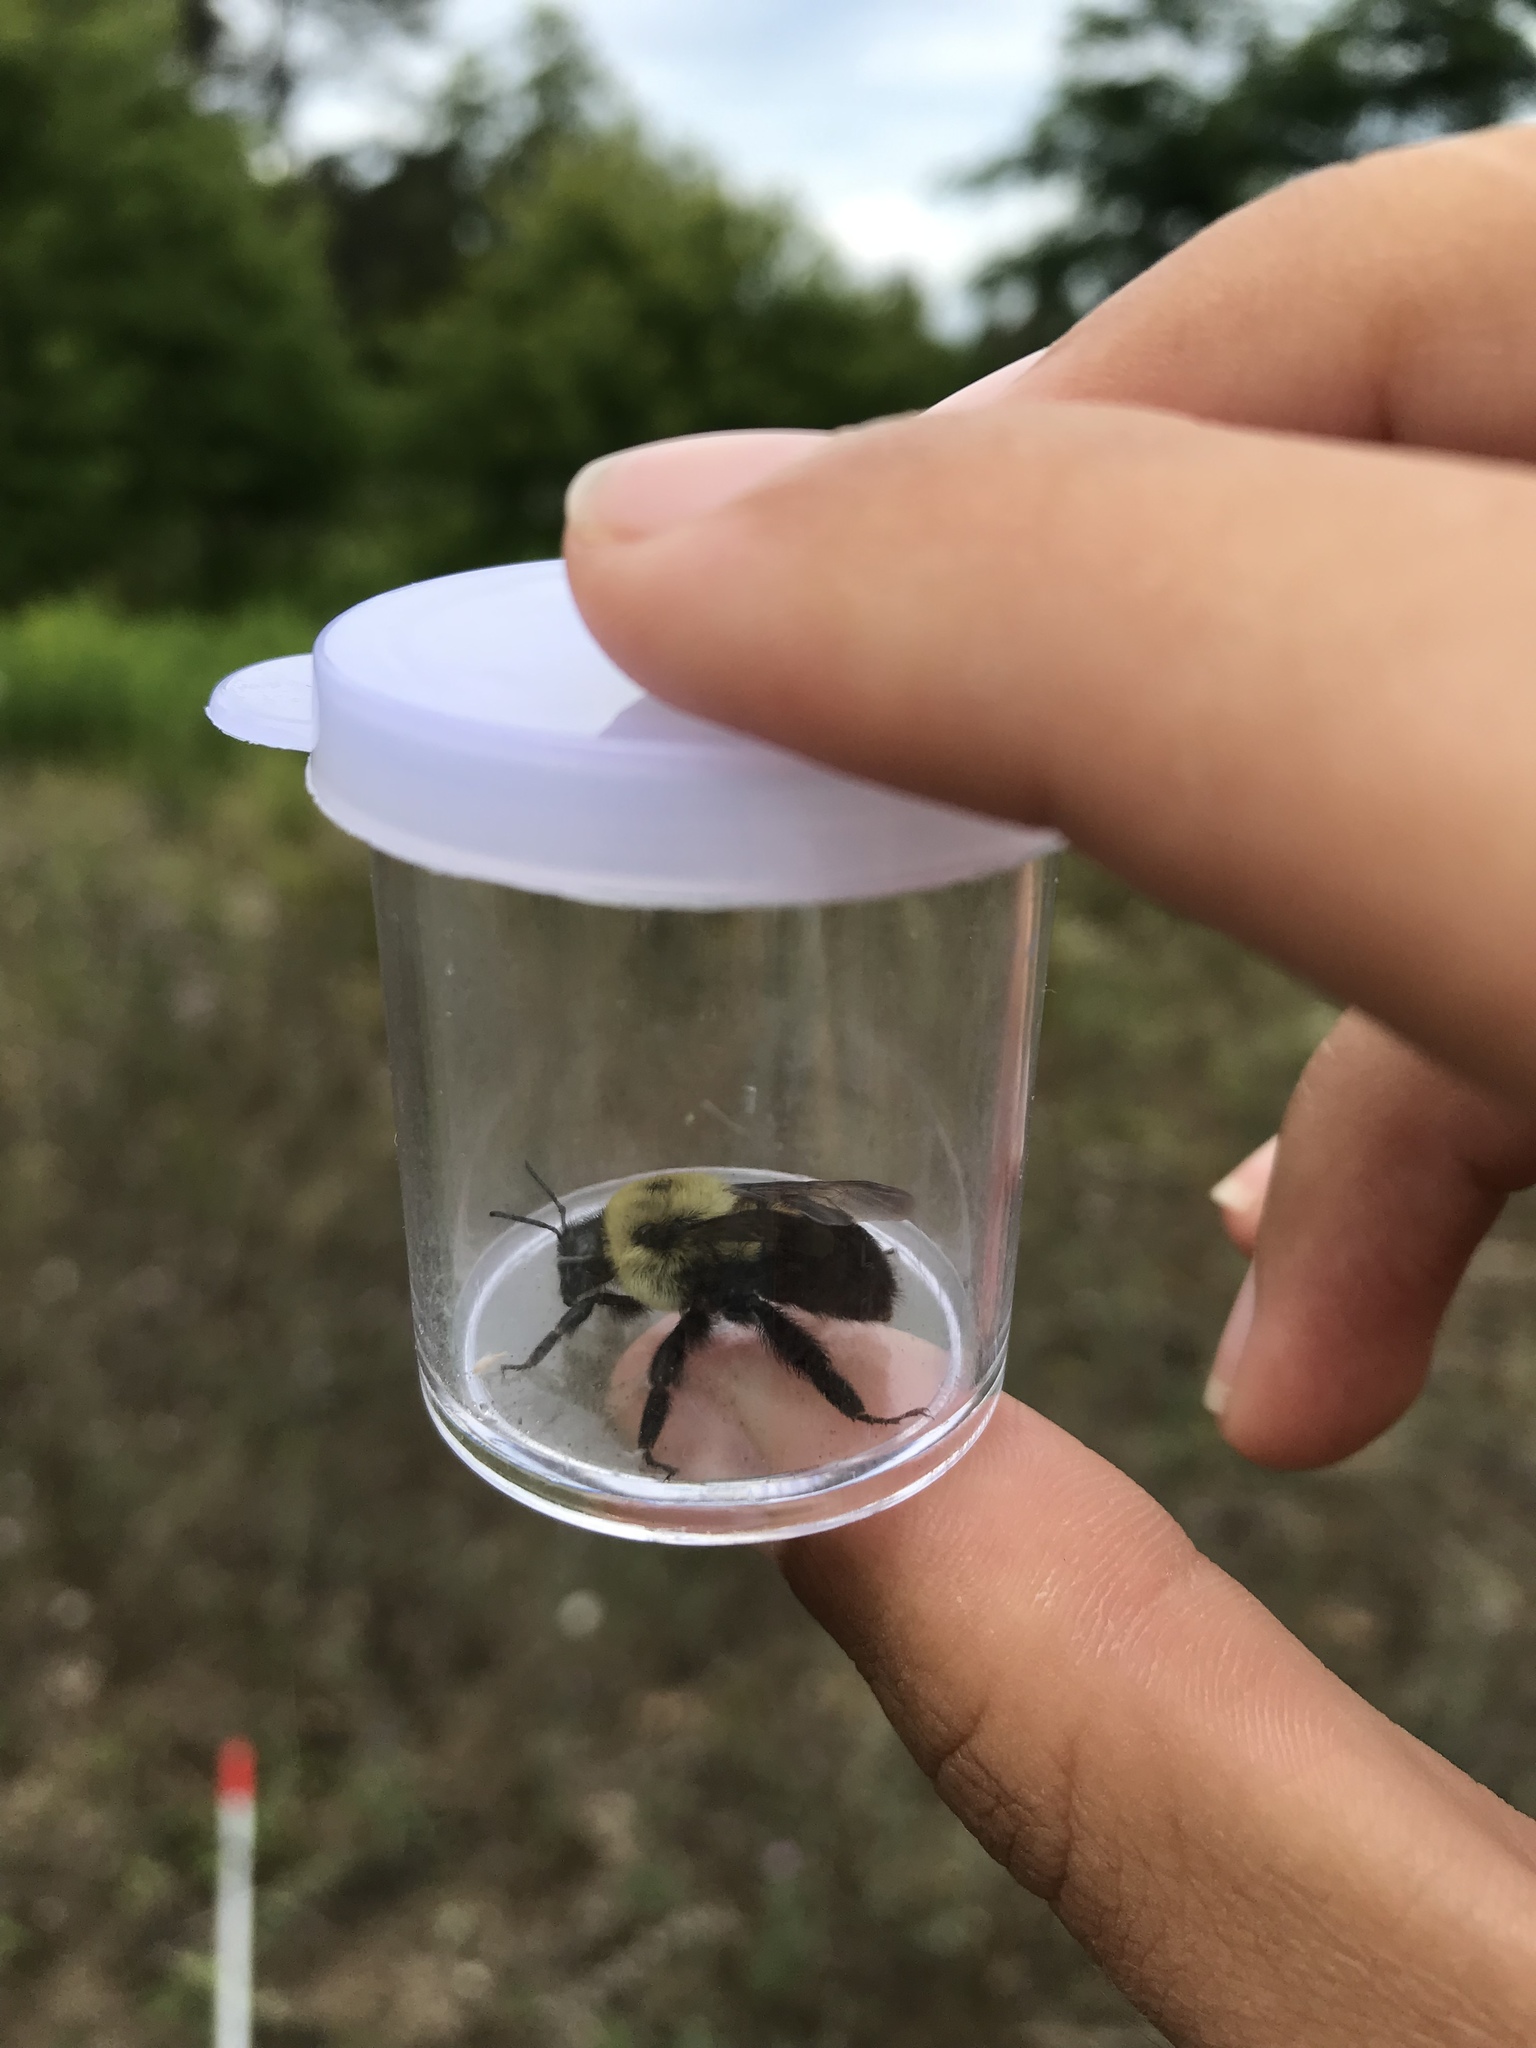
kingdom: Animalia
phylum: Arthropoda
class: Insecta
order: Hymenoptera
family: Apidae
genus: Bombus
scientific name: Bombus griseocollis
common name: Brown-belted bumble bee
